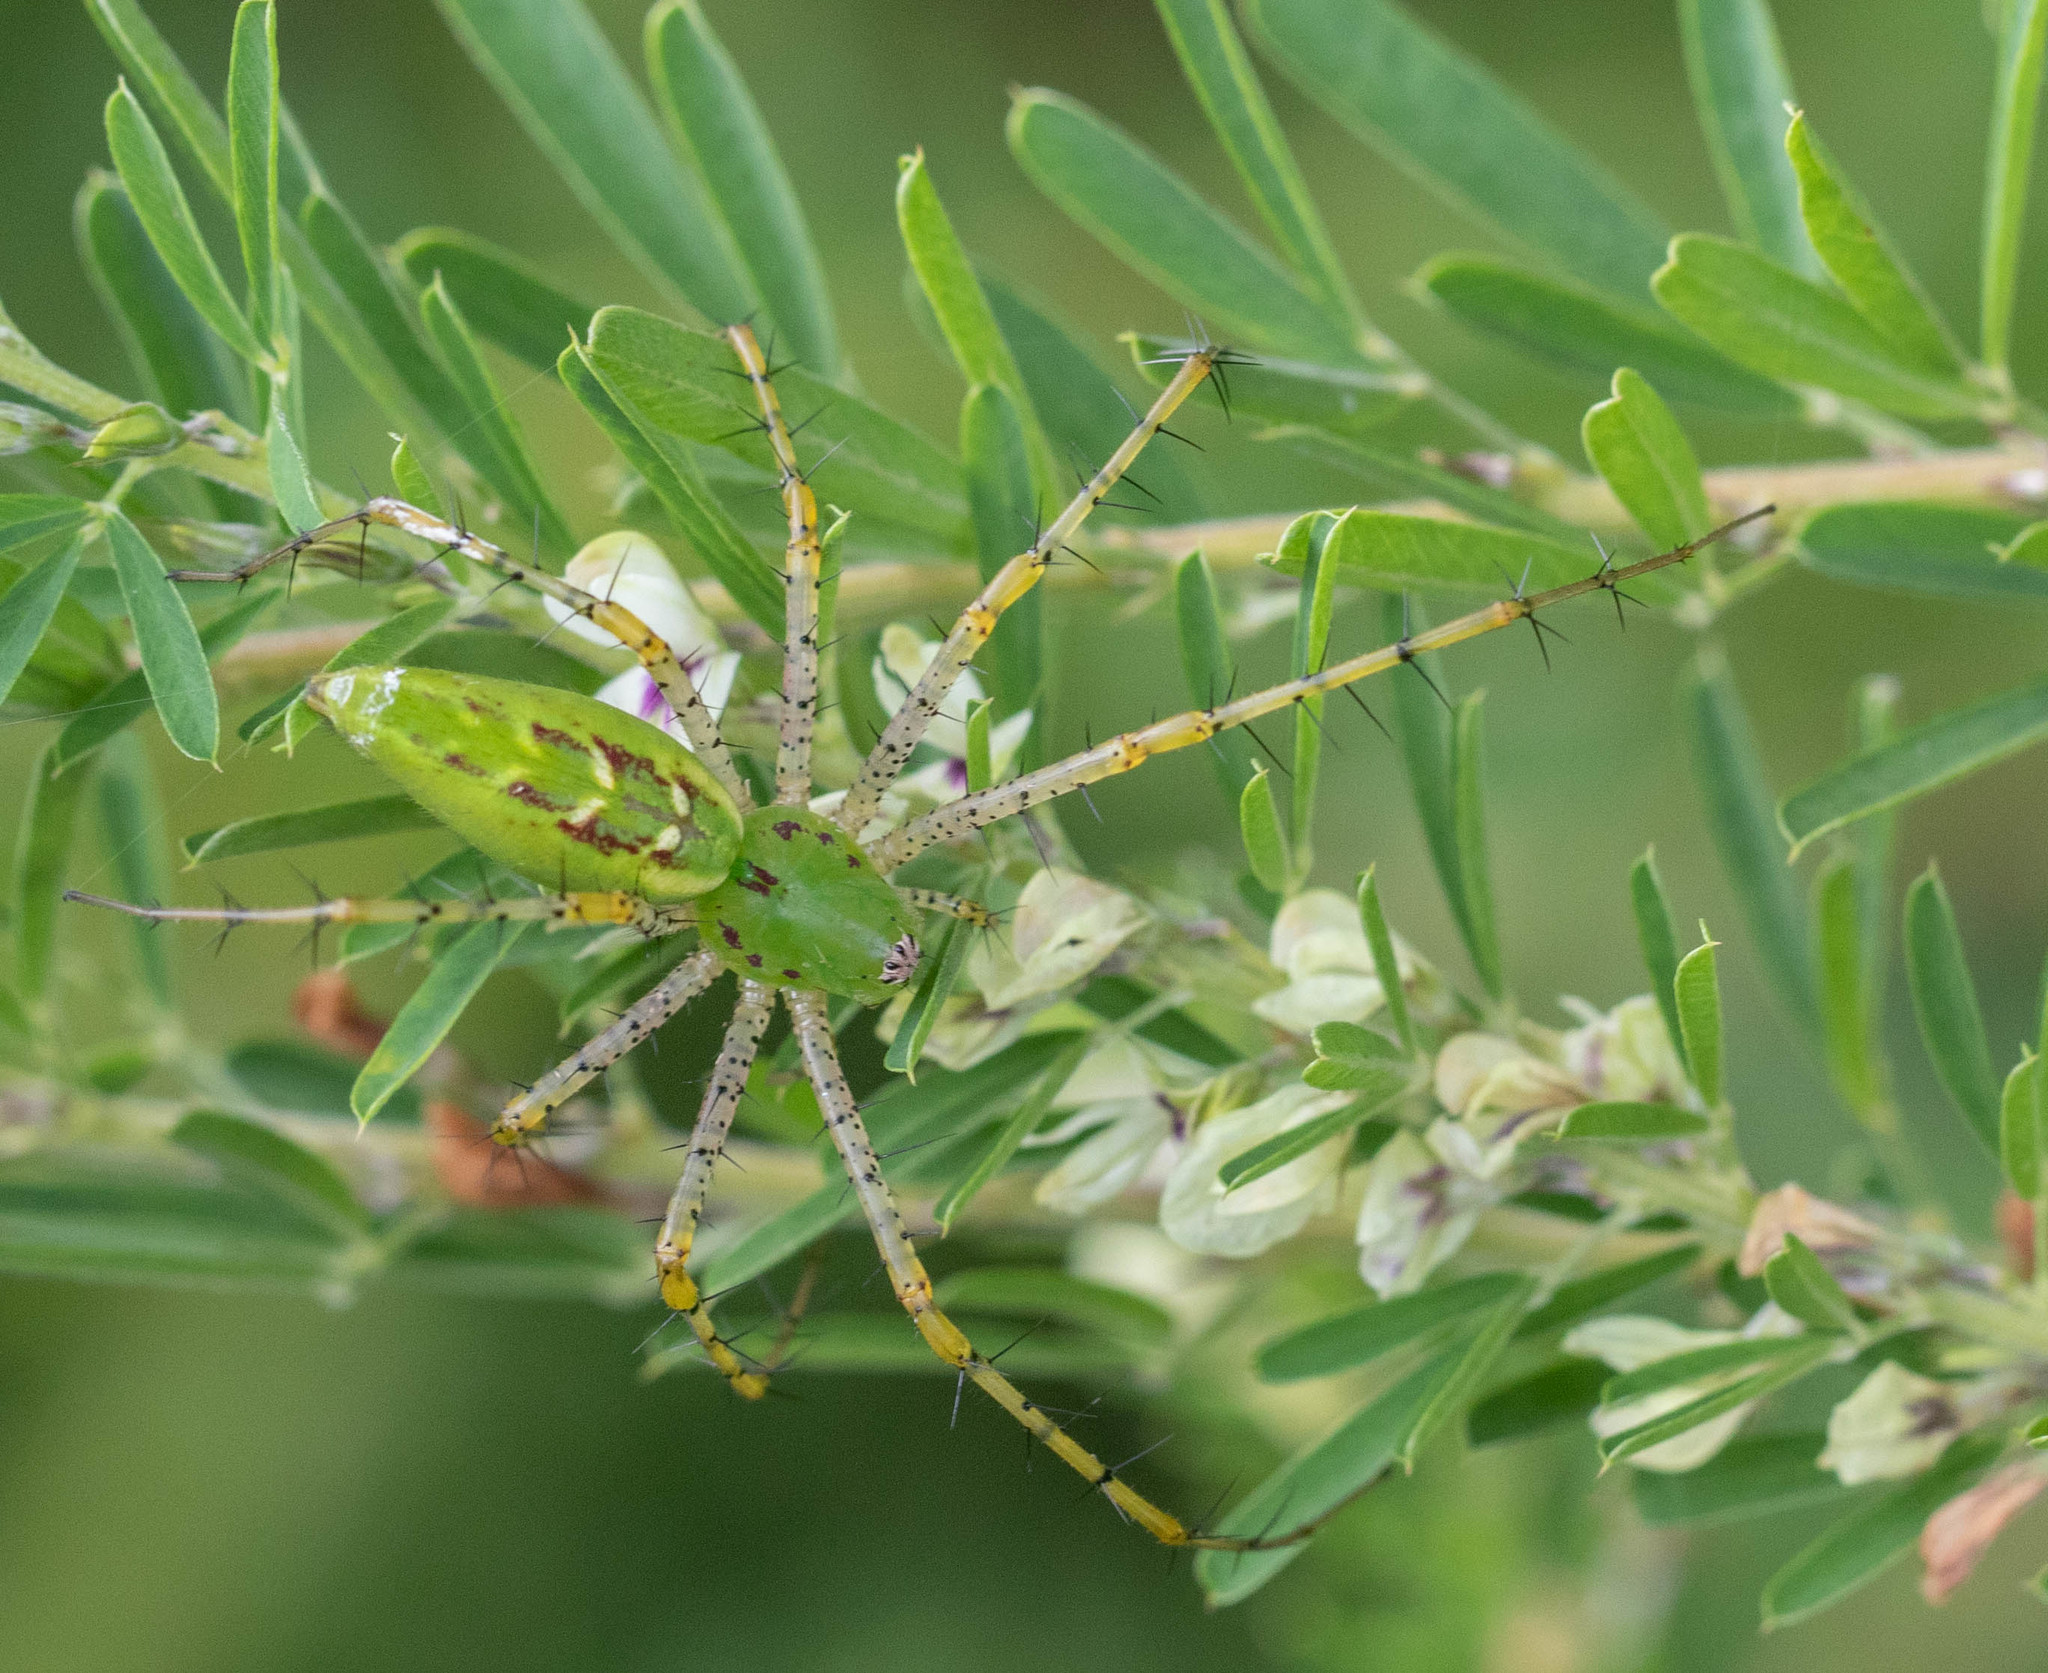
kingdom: Animalia
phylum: Arthropoda
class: Arachnida
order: Araneae
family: Oxyopidae
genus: Peucetia
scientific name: Peucetia viridans
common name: Lynx spiders
